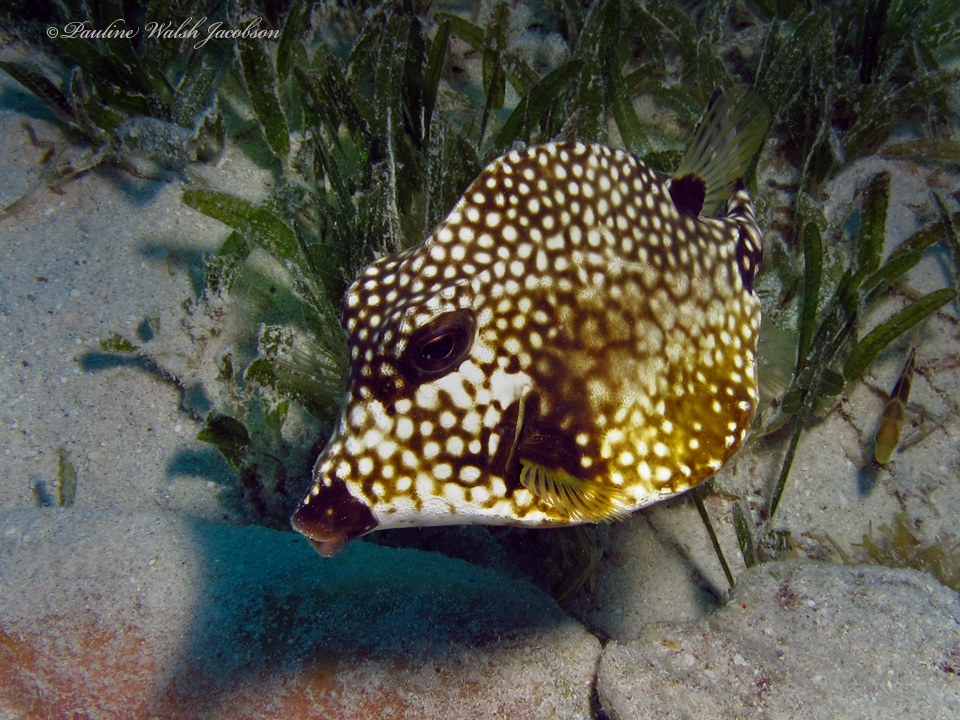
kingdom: Animalia
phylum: Chordata
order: Tetraodontiformes
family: Ostraciidae
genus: Lactophrys
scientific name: Lactophrys triqueter
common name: Smooth trunkfish
